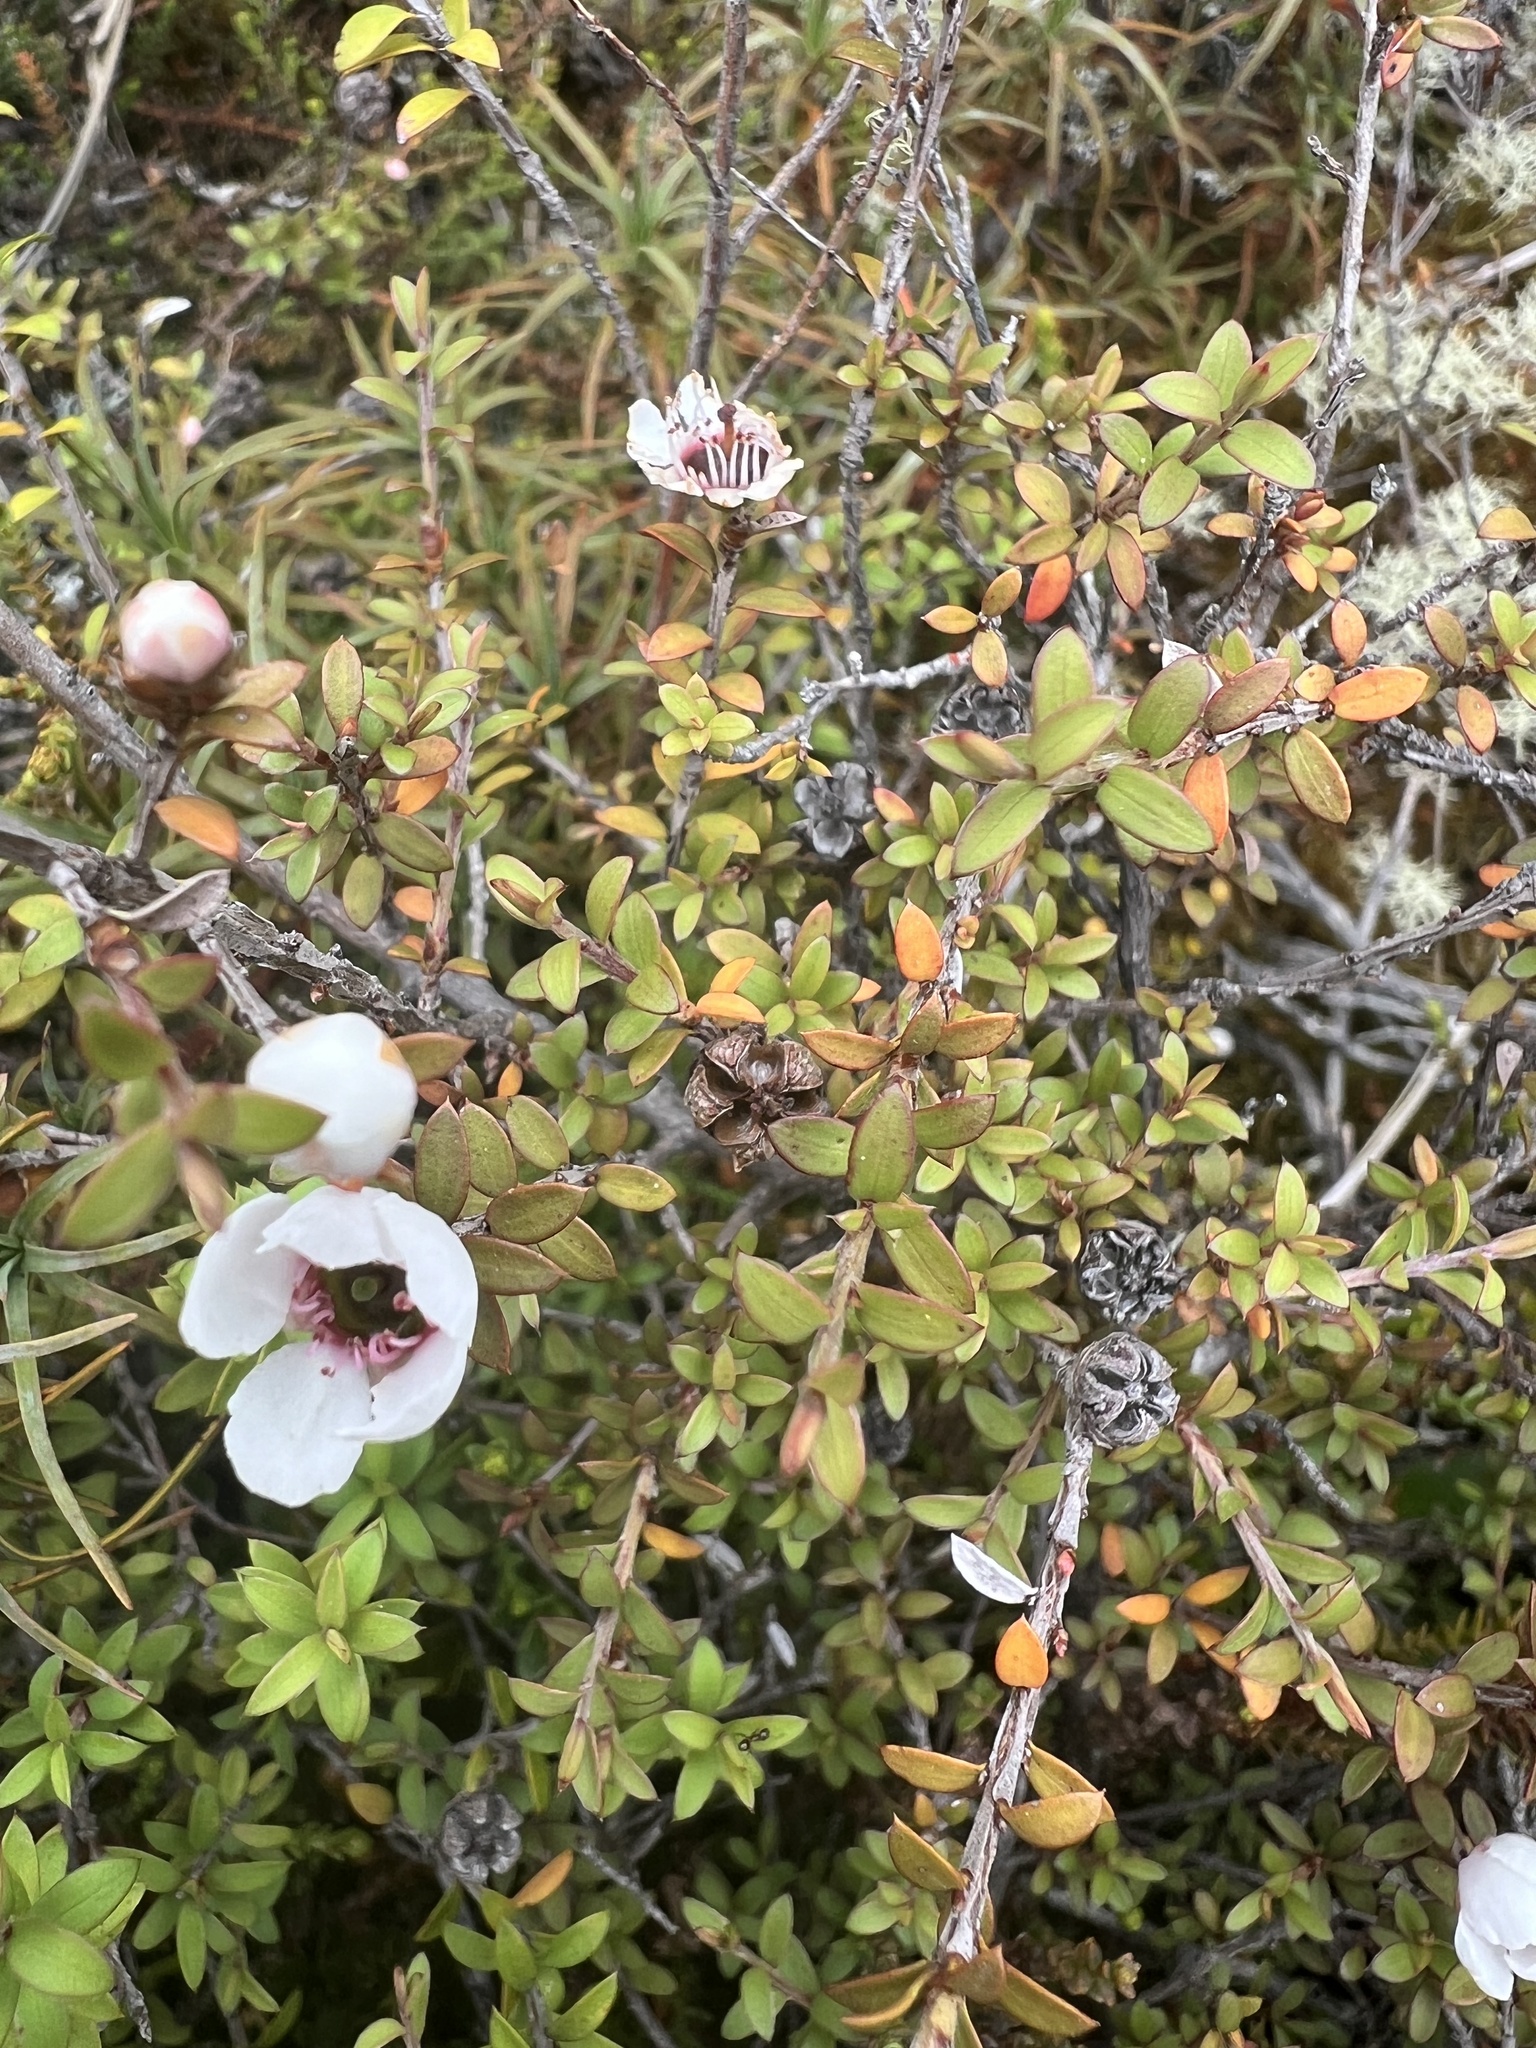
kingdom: Plantae
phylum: Tracheophyta
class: Magnoliopsida
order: Myrtales
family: Myrtaceae
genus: Leptospermum
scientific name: Leptospermum scoparium
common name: Broom tea-tree
